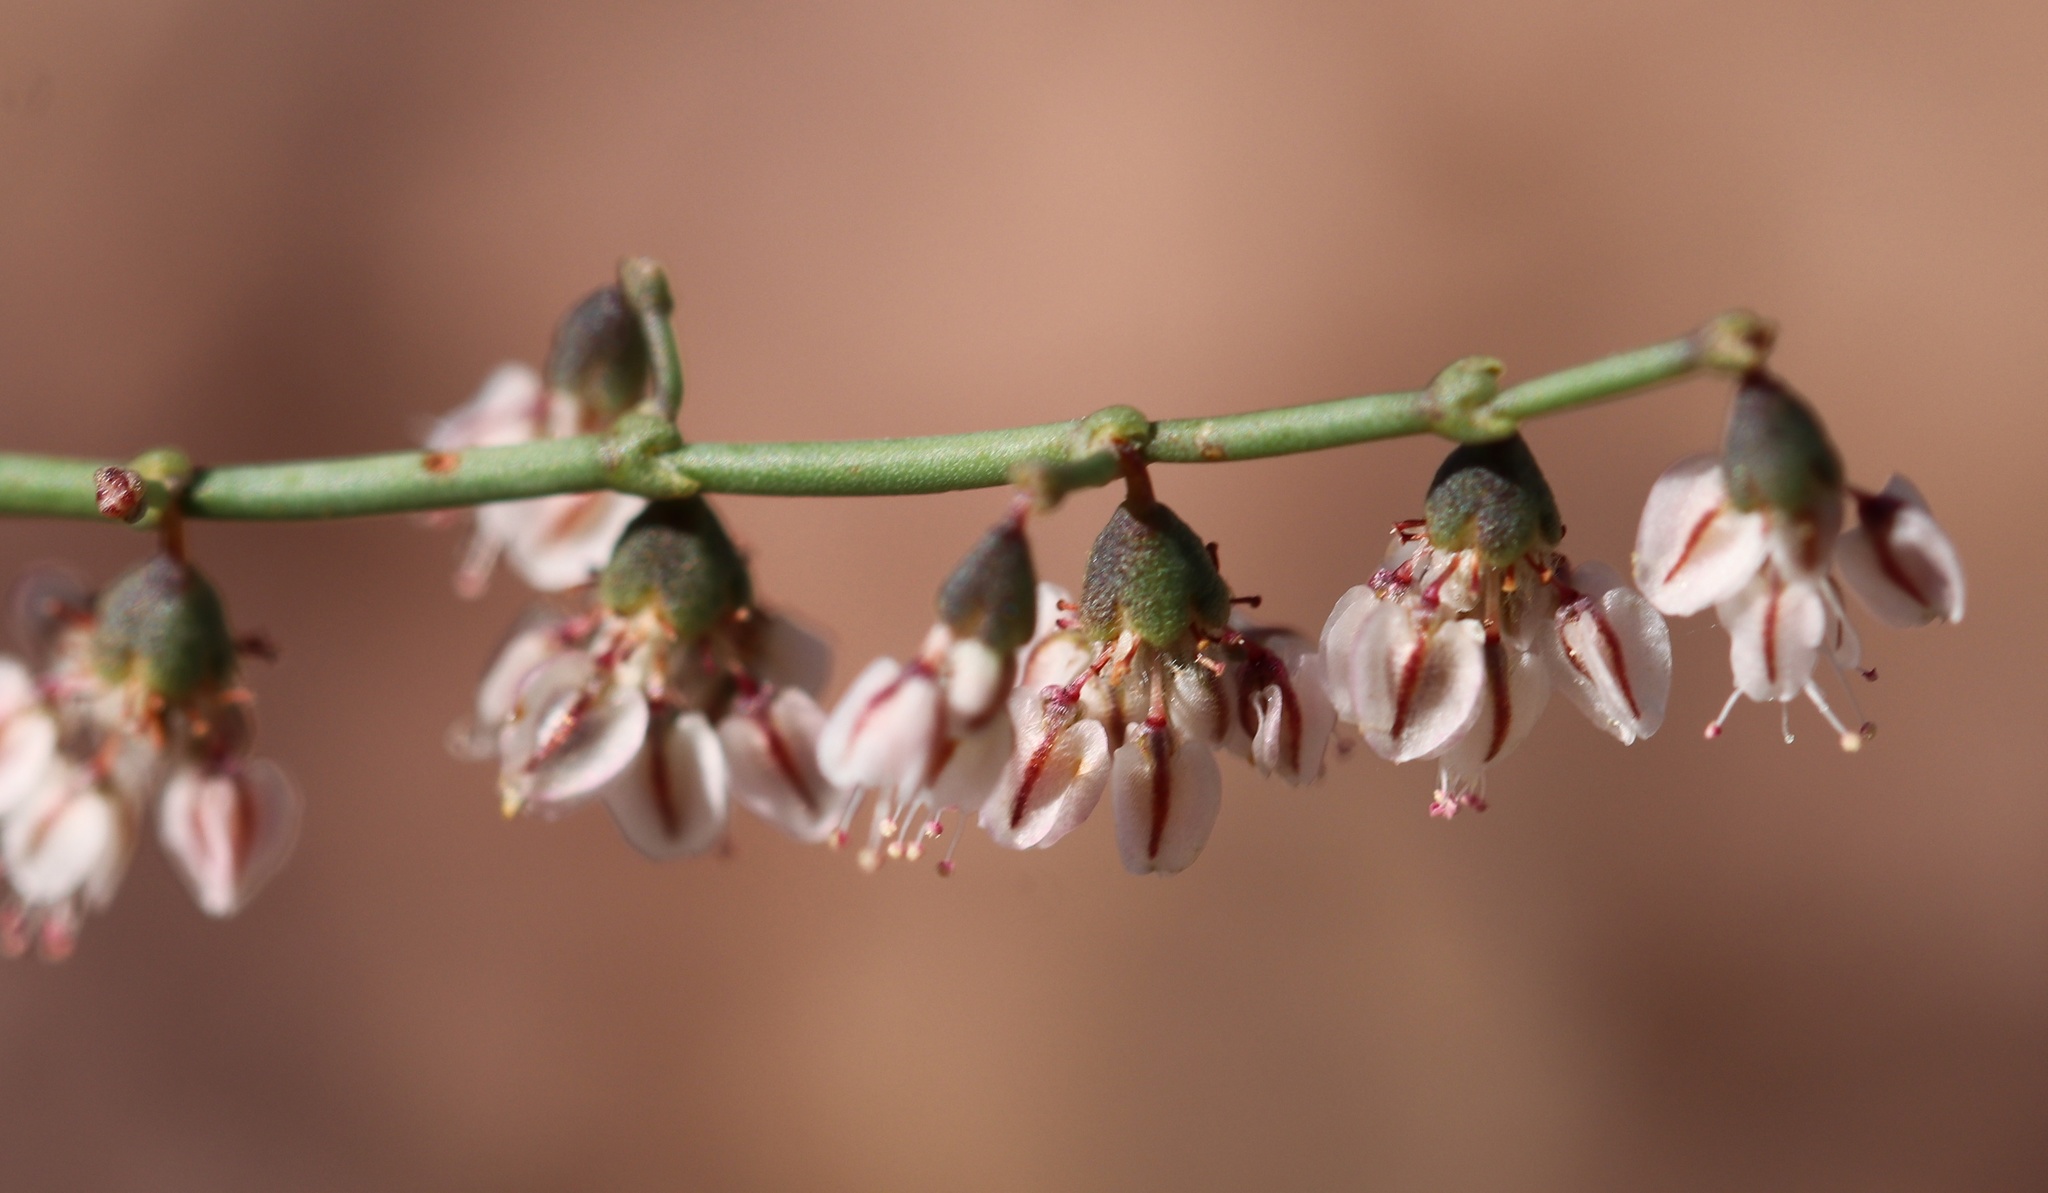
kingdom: Plantae
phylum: Tracheophyta
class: Magnoliopsida
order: Caryophyllales
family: Polygonaceae
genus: Eriogonum
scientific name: Eriogonum deflexum
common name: Skeleton-weed
